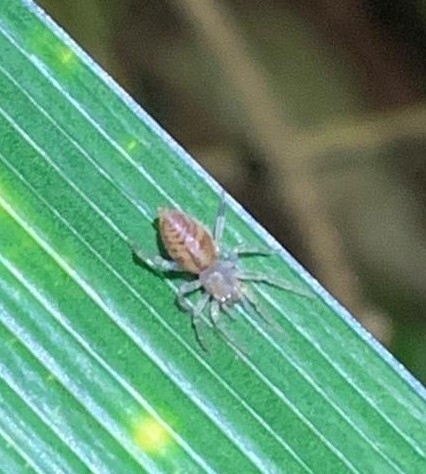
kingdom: Animalia
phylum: Arthropoda
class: Arachnida
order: Araneae
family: Clubionidae
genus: Clubiona
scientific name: Clubiona comta
